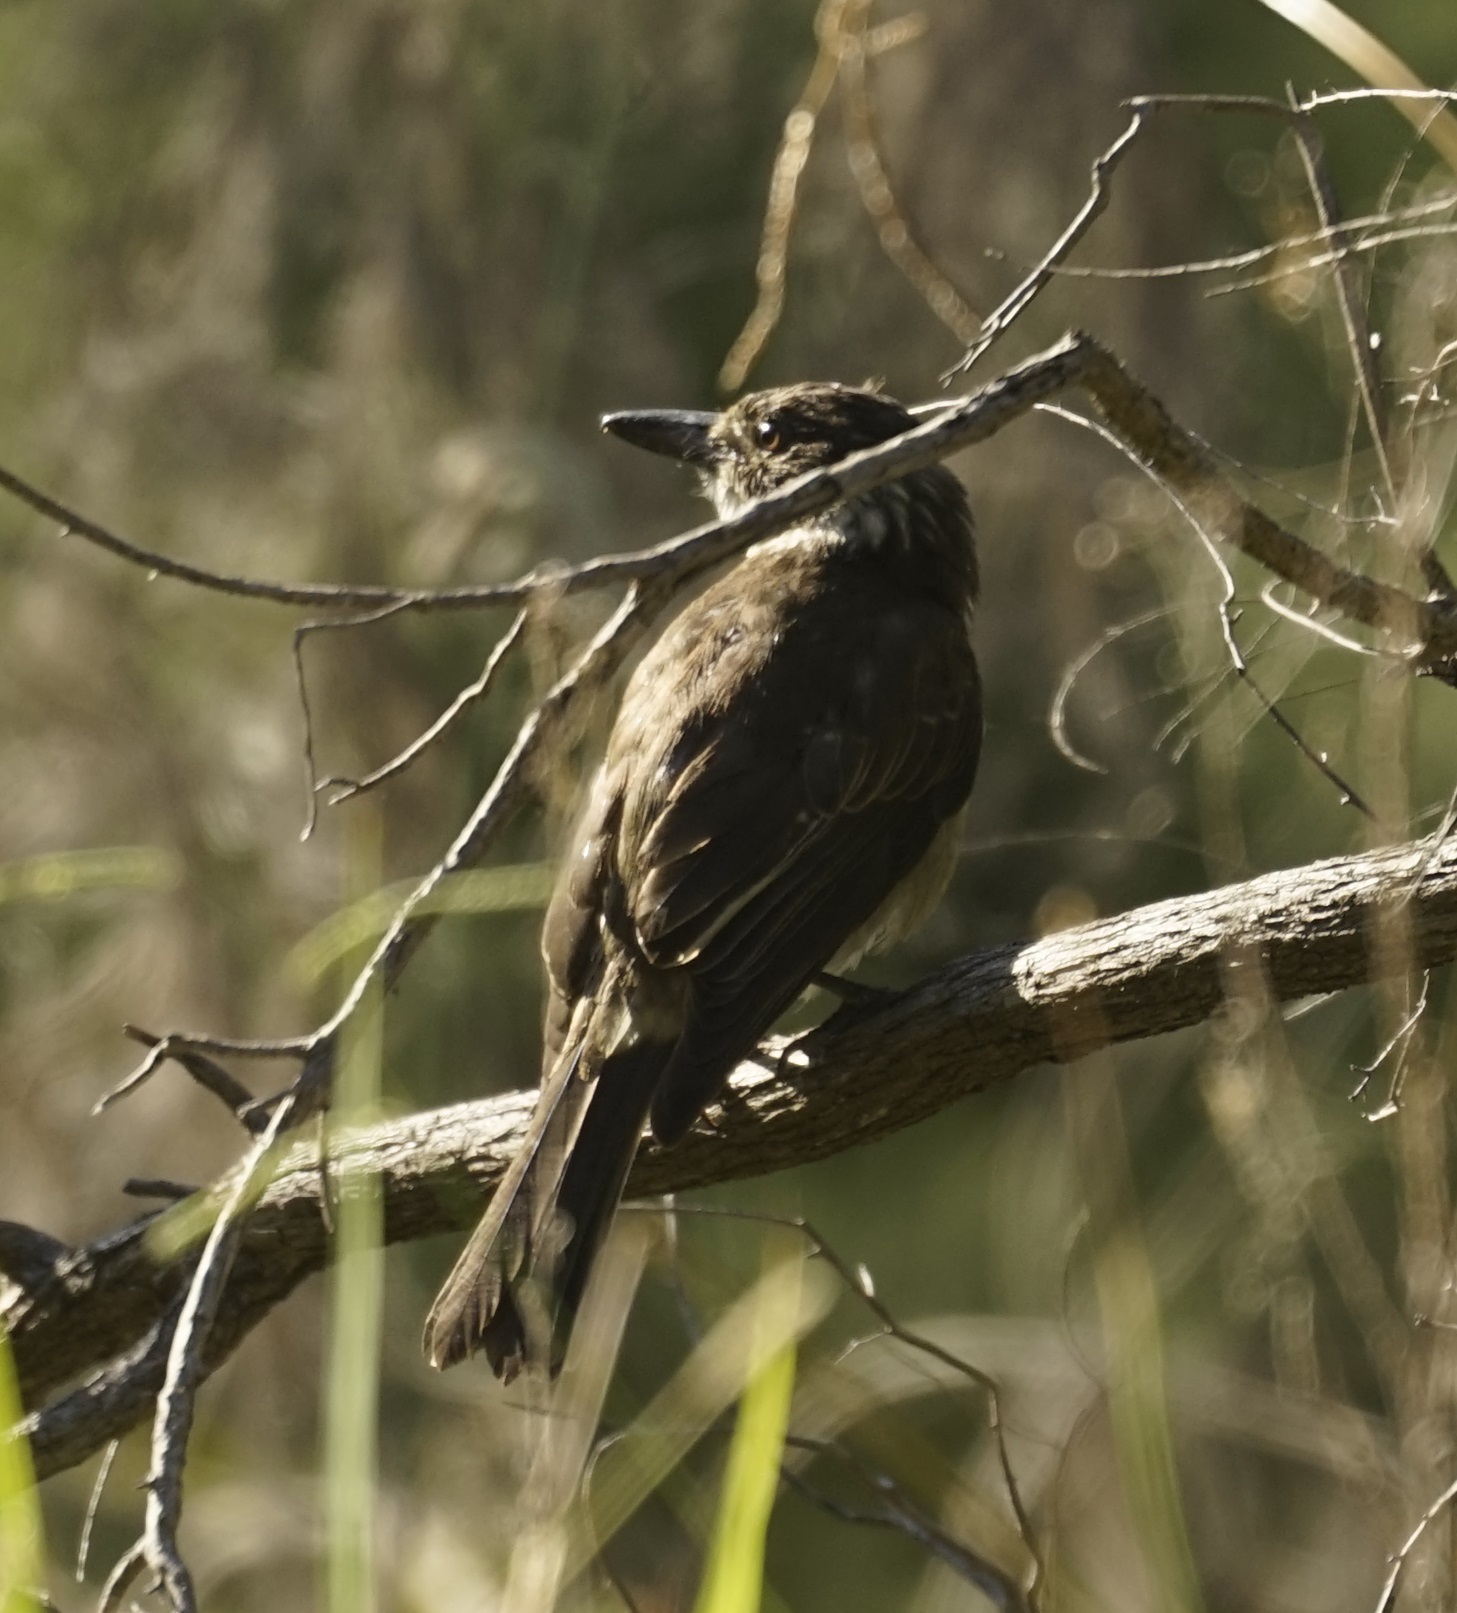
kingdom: Animalia
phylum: Chordata
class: Aves
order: Passeriformes
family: Cracticidae
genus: Cracticus
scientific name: Cracticus torquatus
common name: Grey butcherbird
